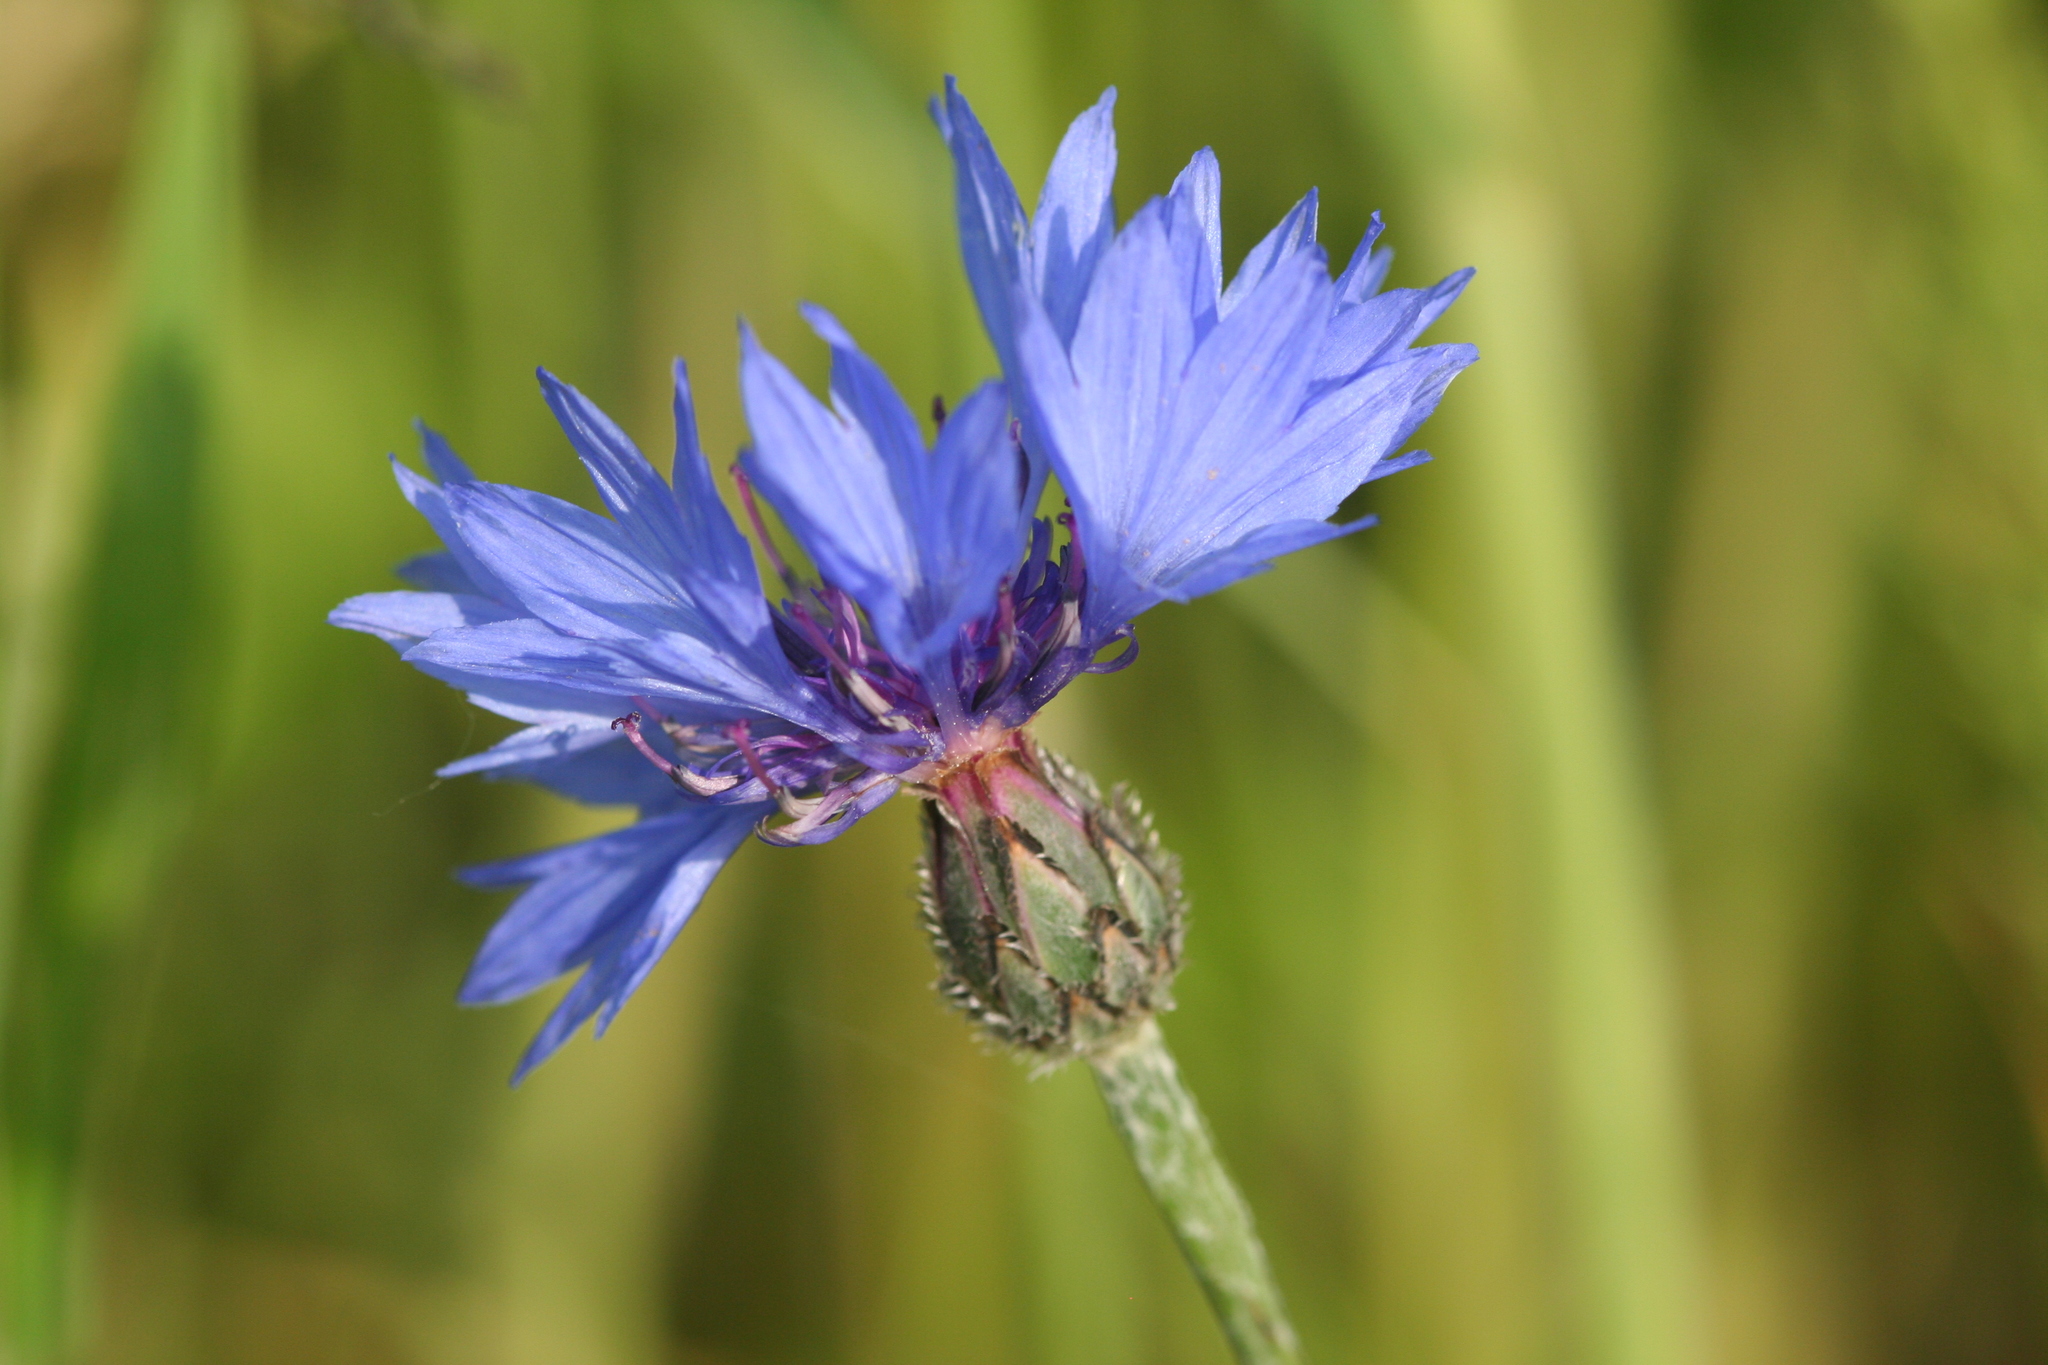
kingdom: Plantae
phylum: Tracheophyta
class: Magnoliopsida
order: Asterales
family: Asteraceae
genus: Centaurea
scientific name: Centaurea cyanus
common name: Cornflower
